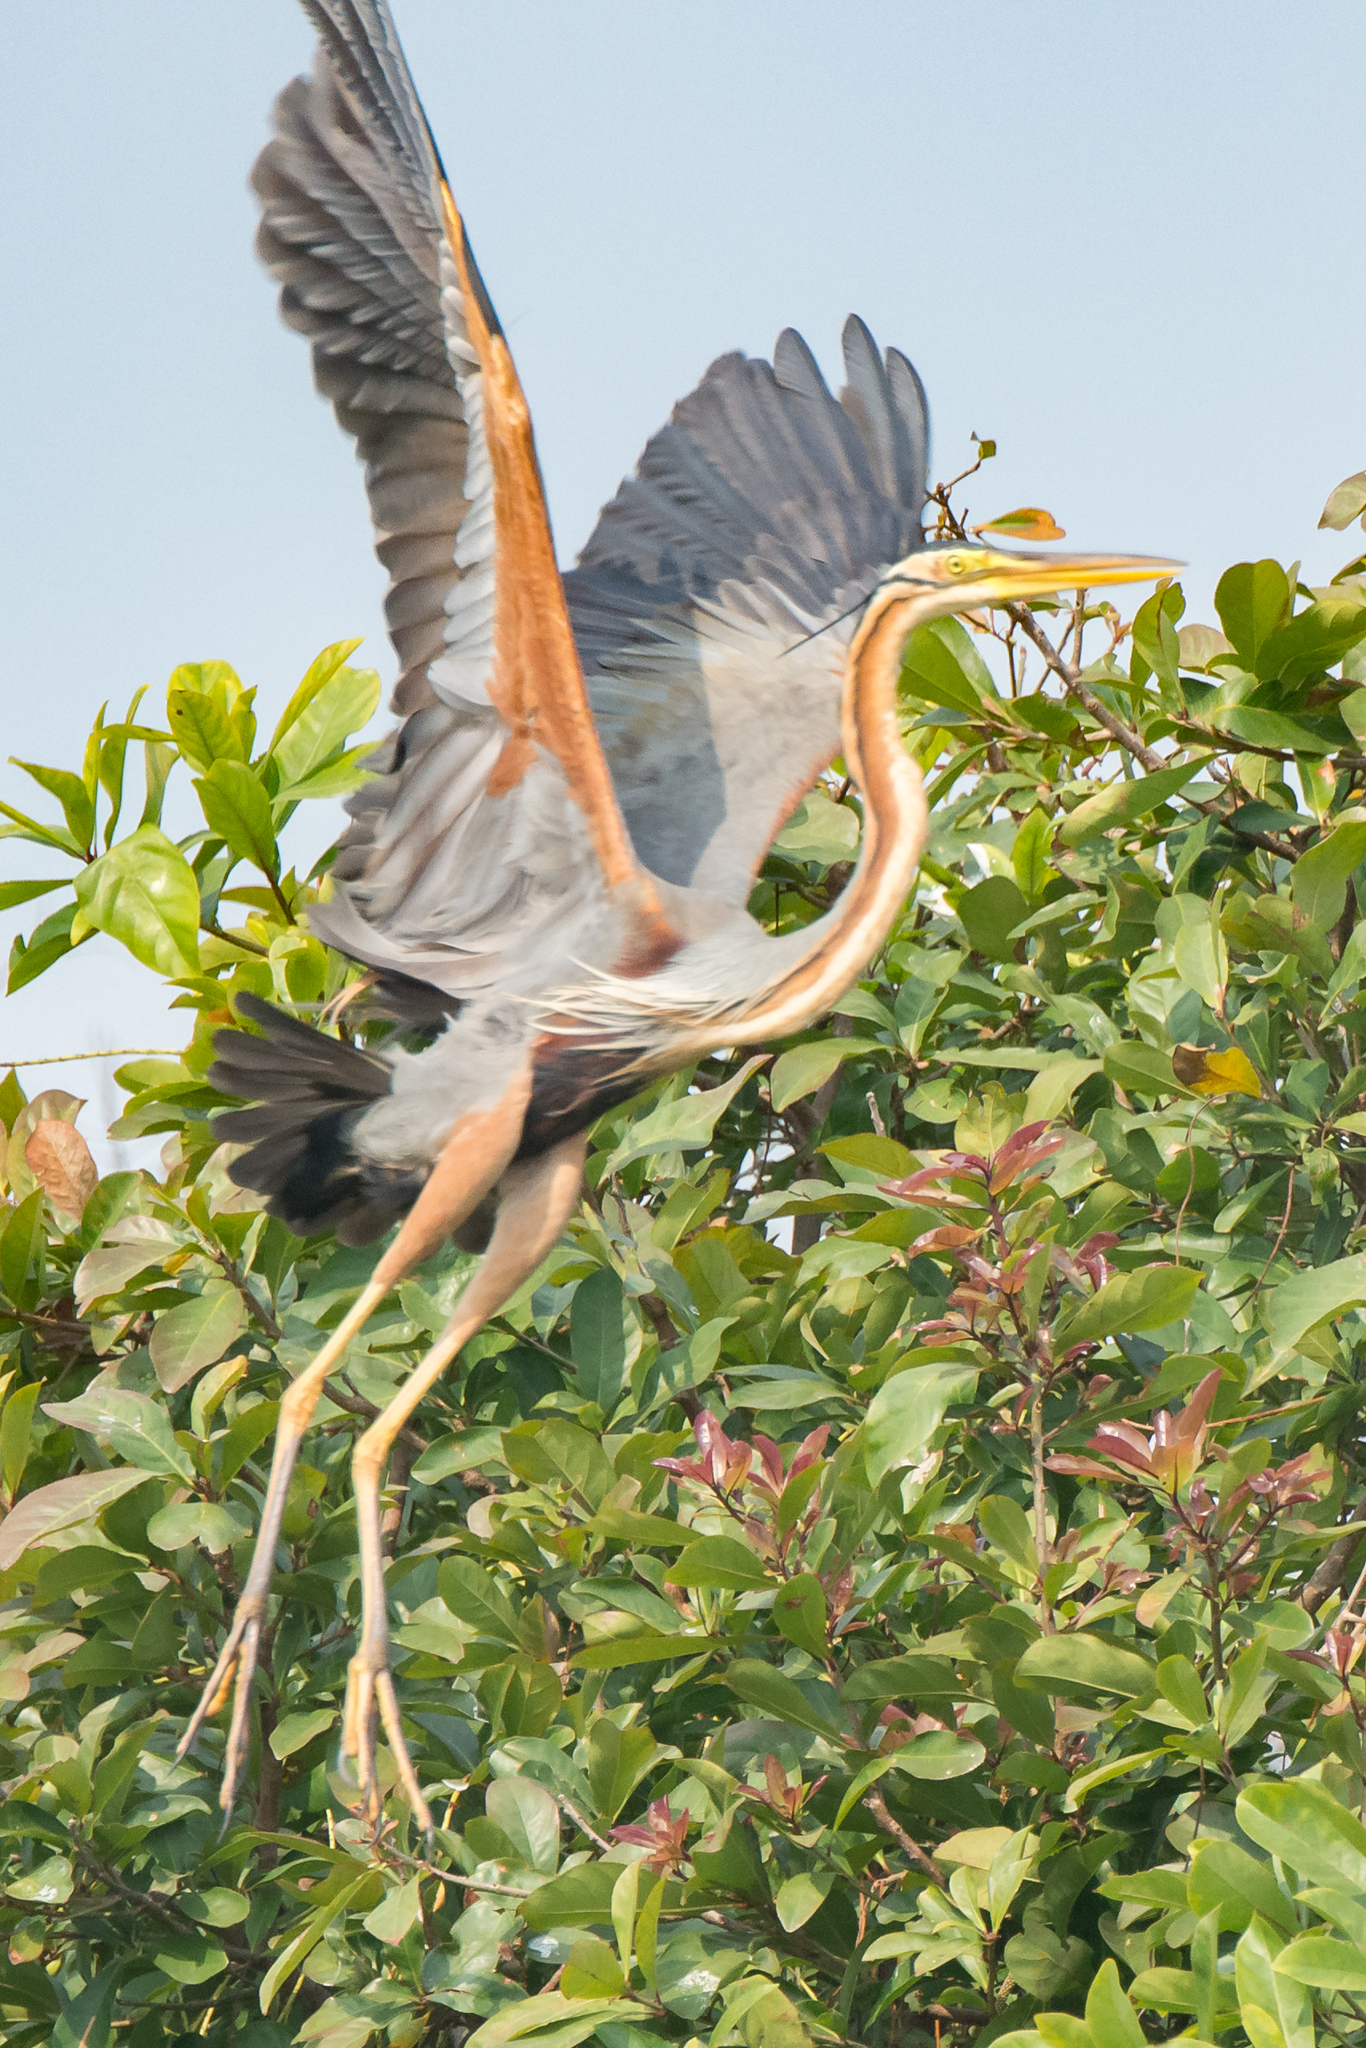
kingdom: Animalia
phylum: Chordata
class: Aves
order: Pelecaniformes
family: Ardeidae
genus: Ardea
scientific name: Ardea purpurea
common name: Purple heron
